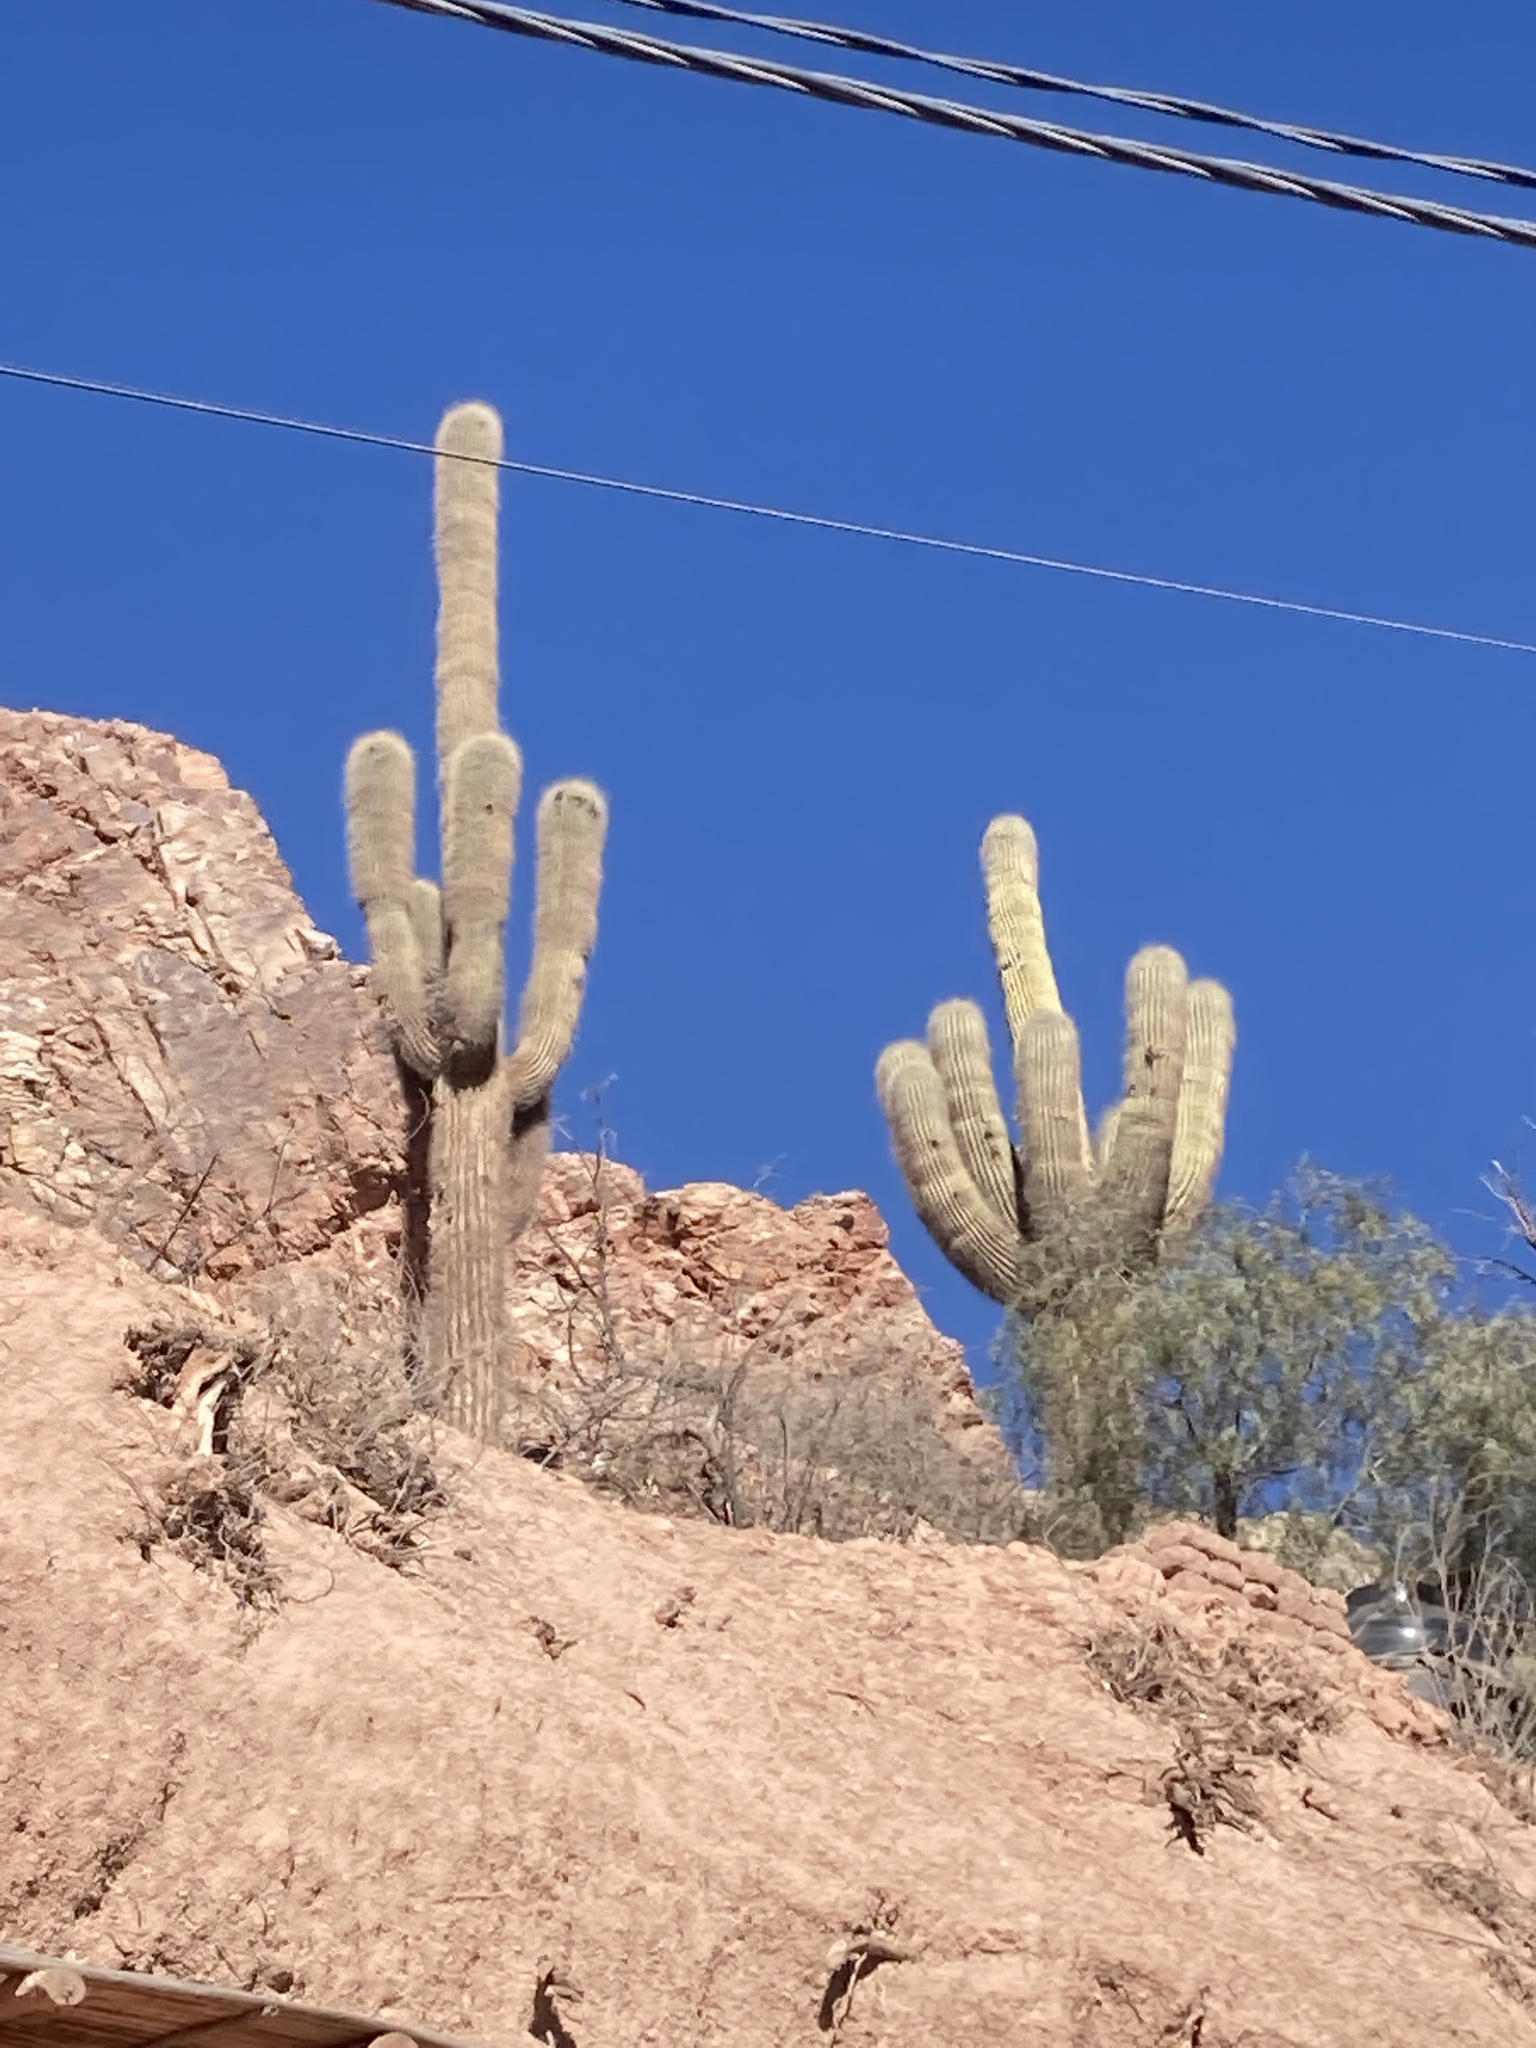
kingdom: Plantae
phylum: Tracheophyta
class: Magnoliopsida
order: Caryophyllales
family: Cactaceae
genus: Leucostele
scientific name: Leucostele atacamensis
